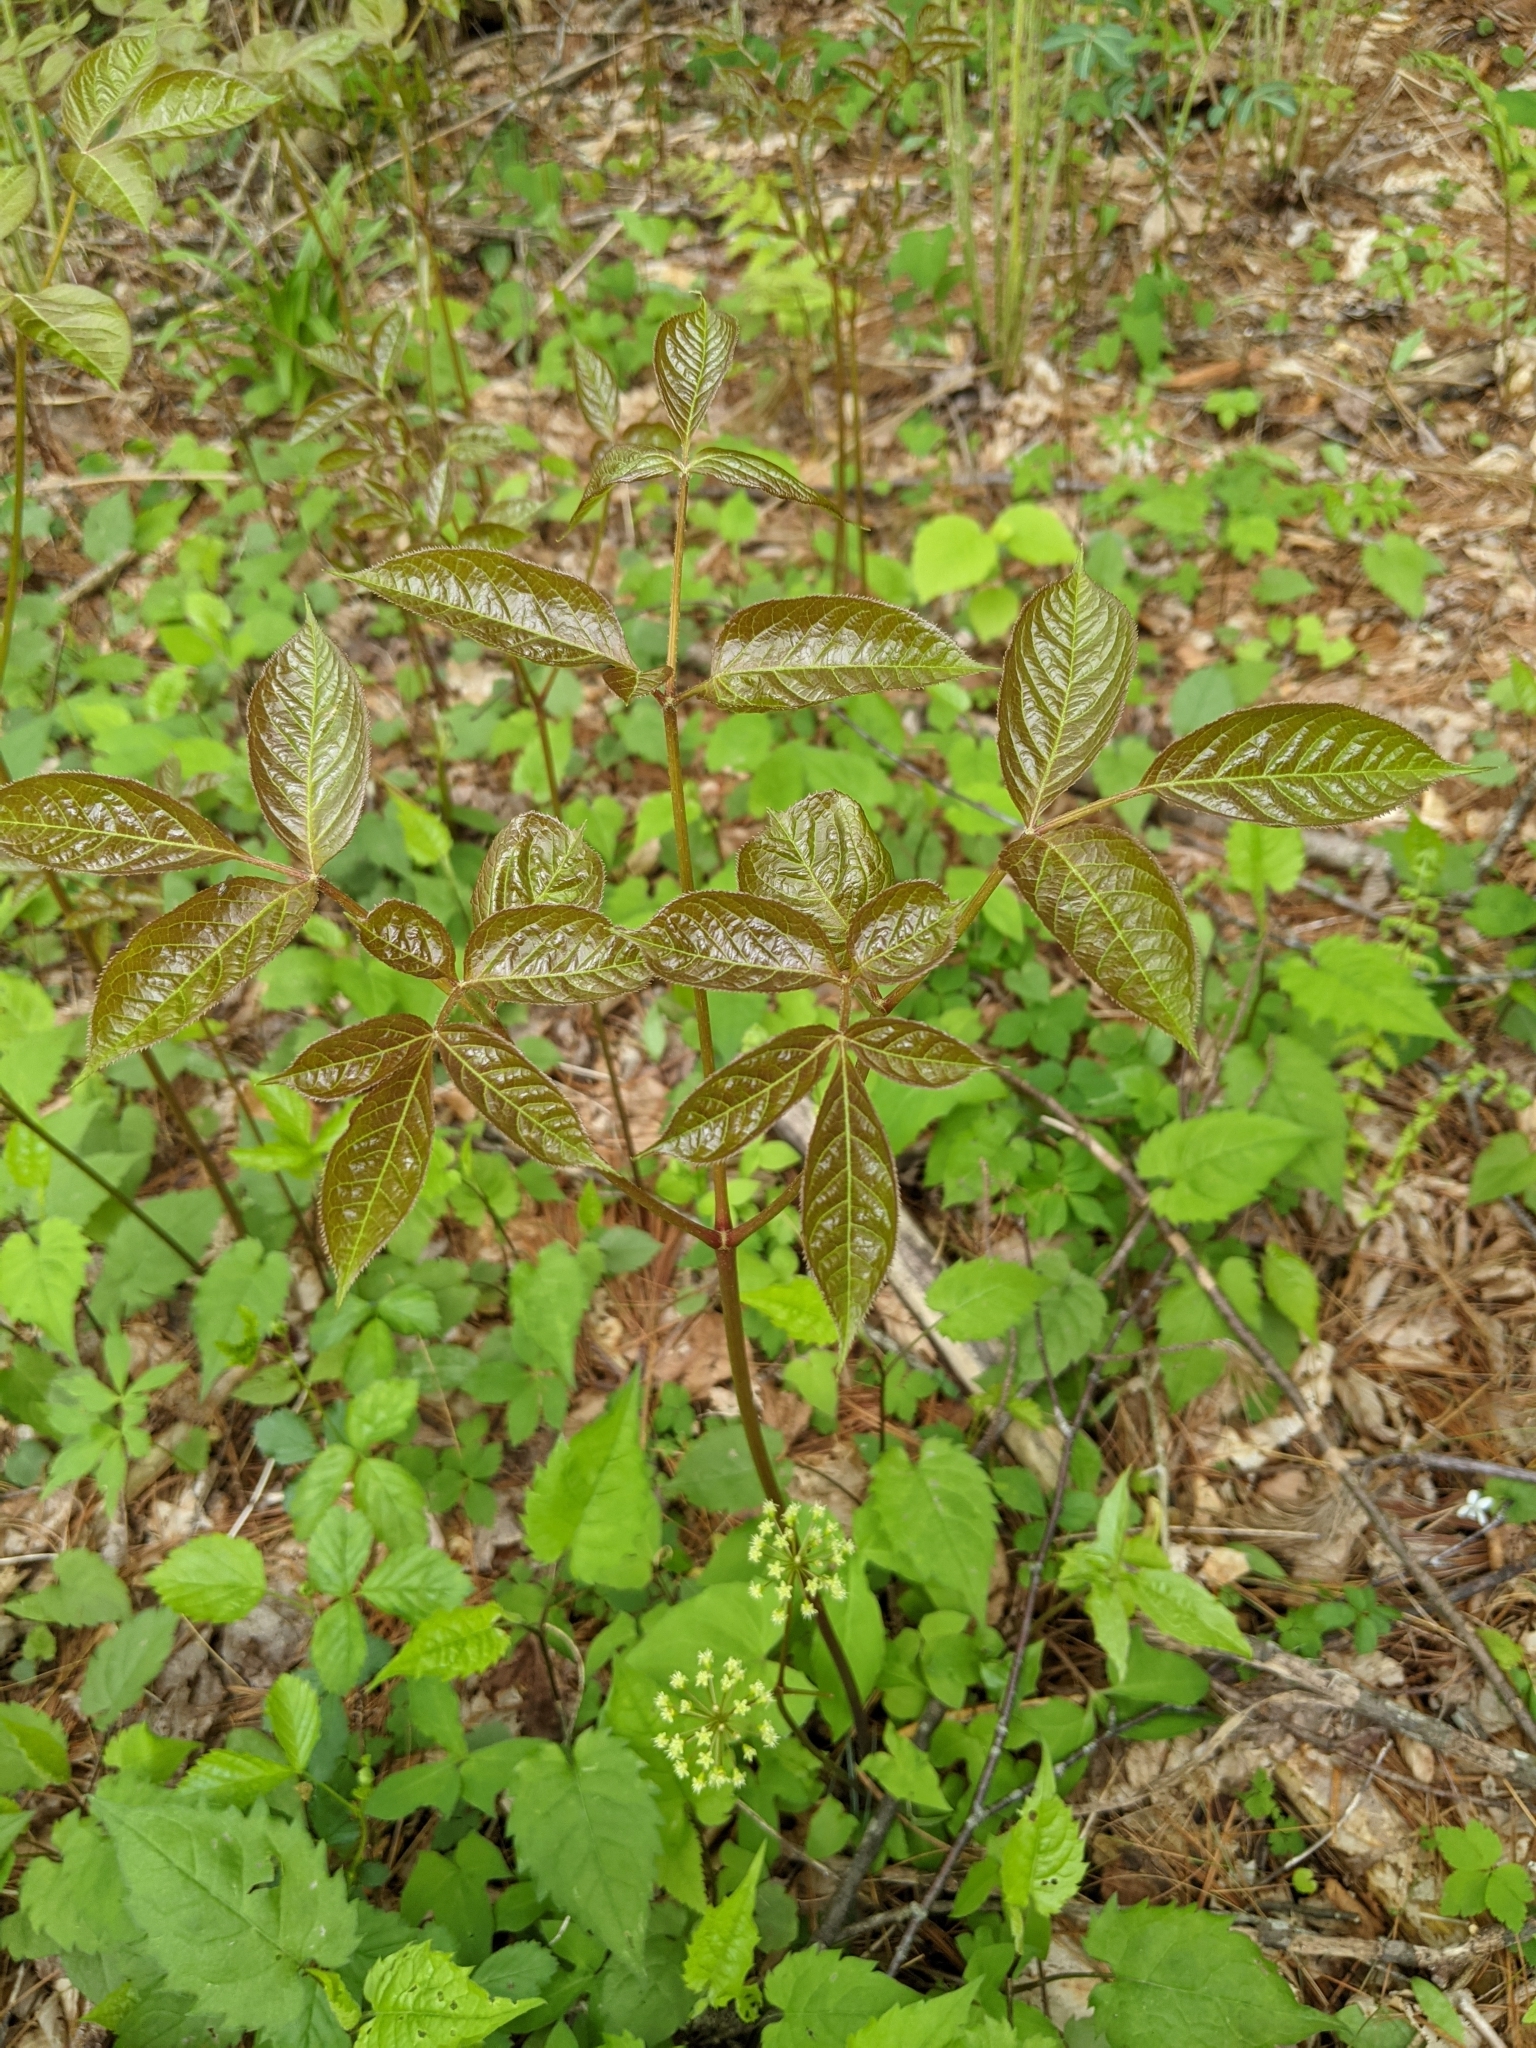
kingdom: Plantae
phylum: Tracheophyta
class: Magnoliopsida
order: Apiales
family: Araliaceae
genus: Aralia
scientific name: Aralia nudicaulis
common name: Wild sarsaparilla
